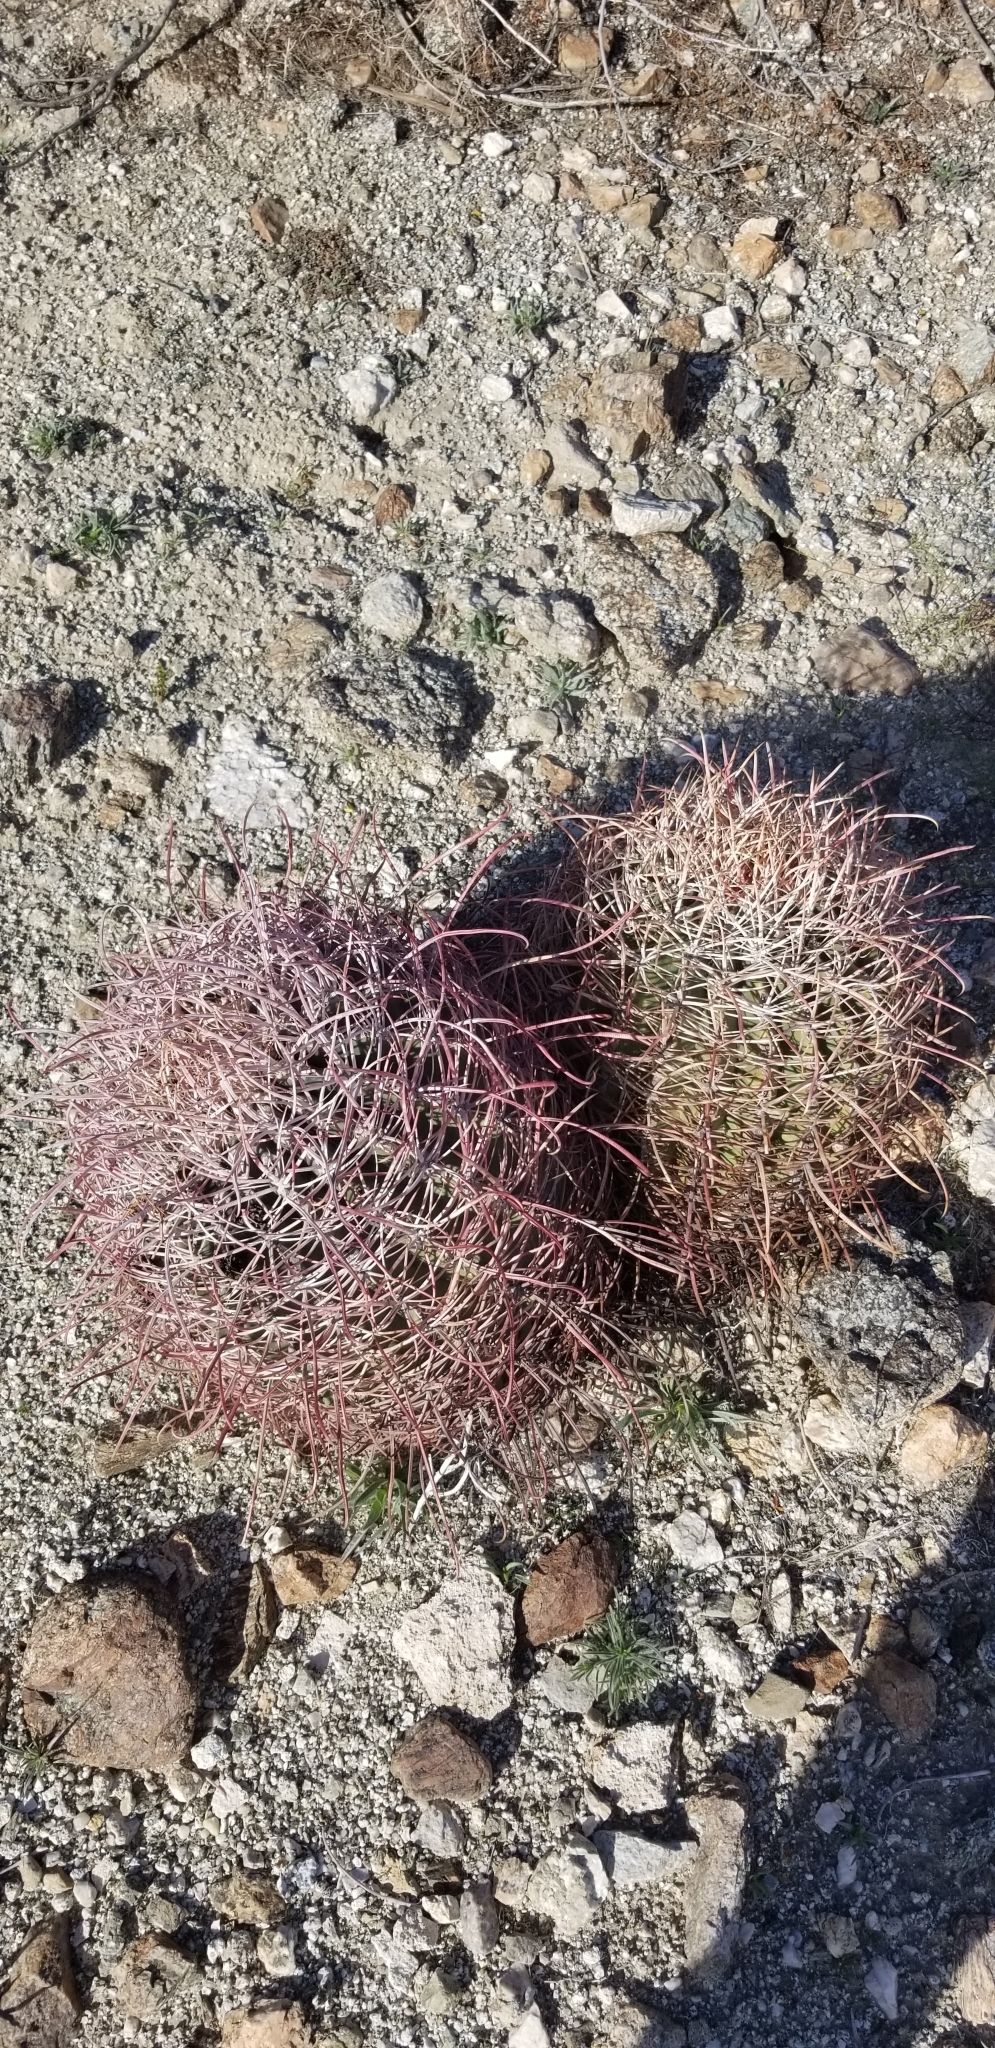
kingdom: Plantae
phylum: Tracheophyta
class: Magnoliopsida
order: Caryophyllales
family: Cactaceae
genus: Ferocactus
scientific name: Ferocactus cylindraceus
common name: California barrel cactus
